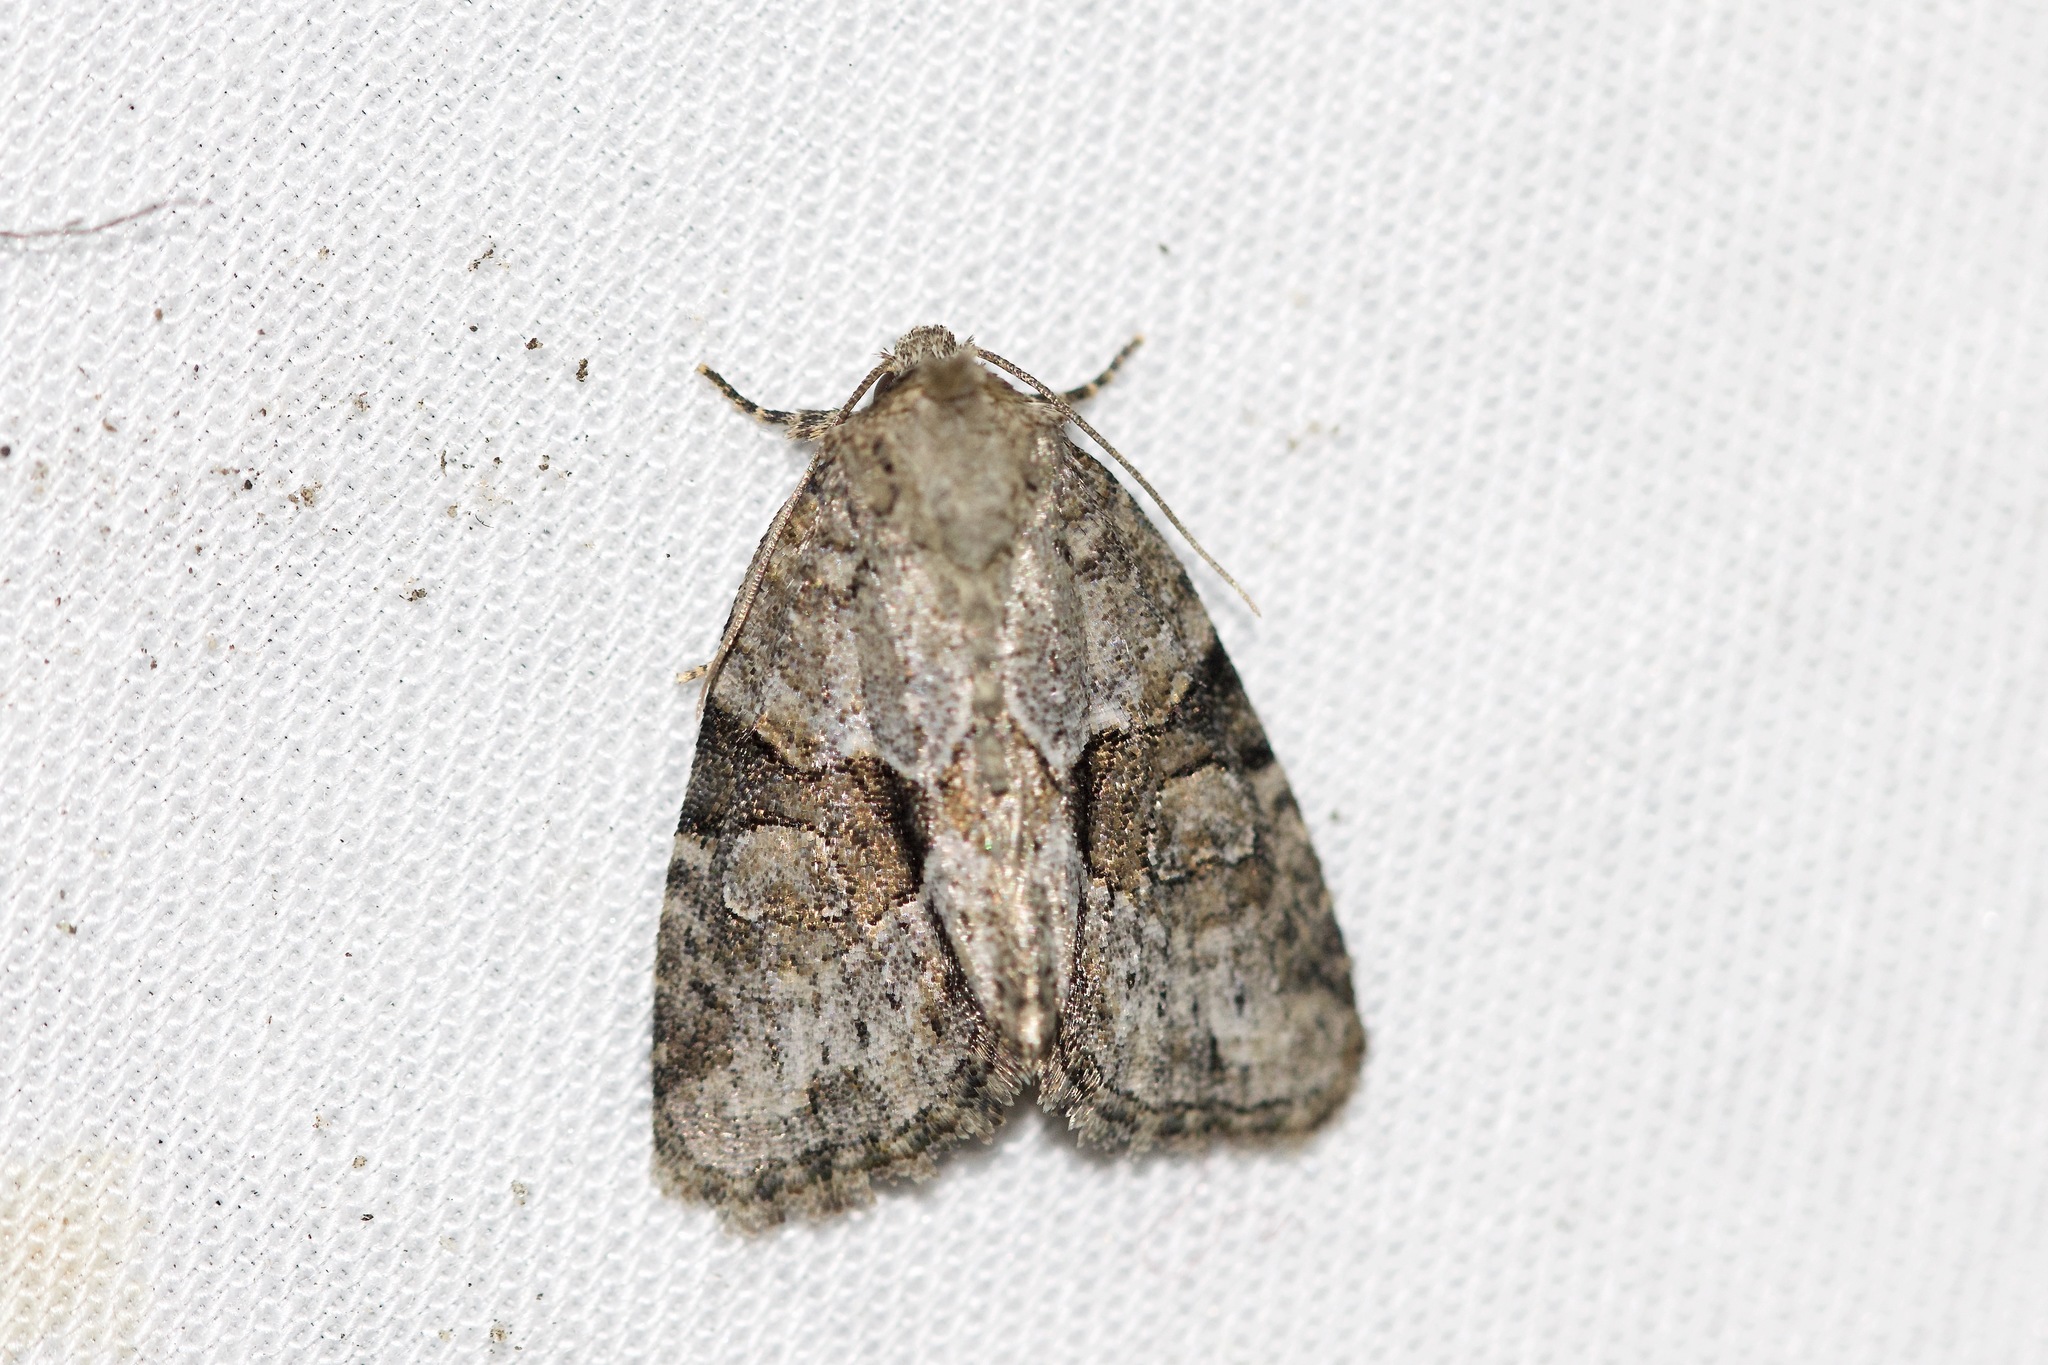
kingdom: Animalia
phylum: Arthropoda
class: Insecta
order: Lepidoptera
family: Noctuidae
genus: Neoligia
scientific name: Neoligia exhausta
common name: Exhausted brocade
